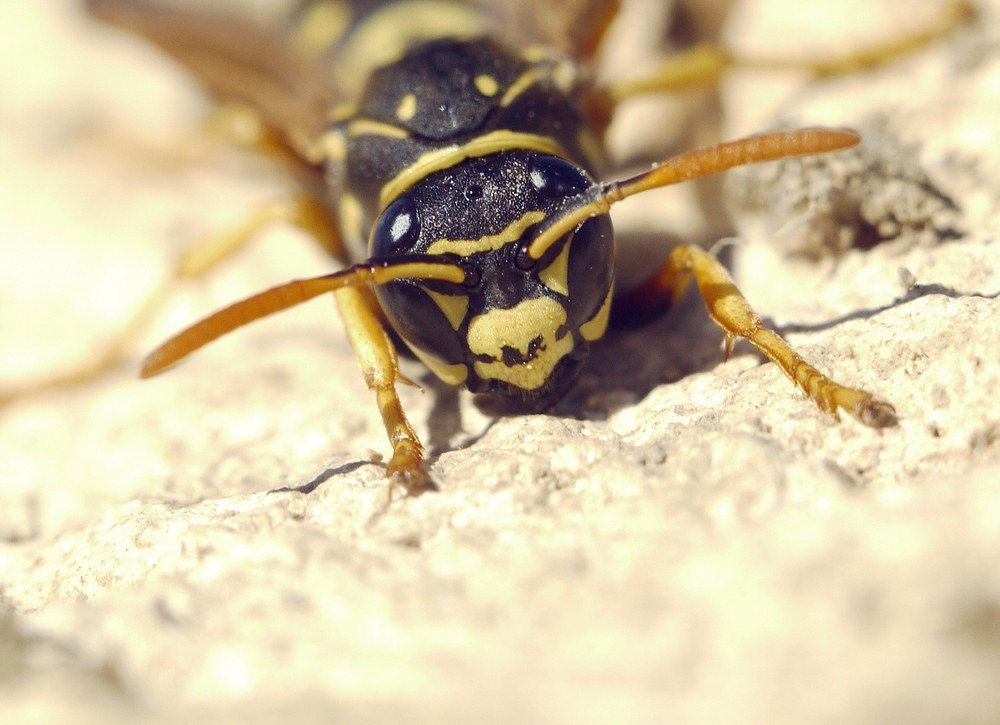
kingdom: Animalia
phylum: Arthropoda
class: Insecta
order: Hymenoptera
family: Eumenidae
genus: Polistes
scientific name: Polistes dominula
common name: Paper wasp
